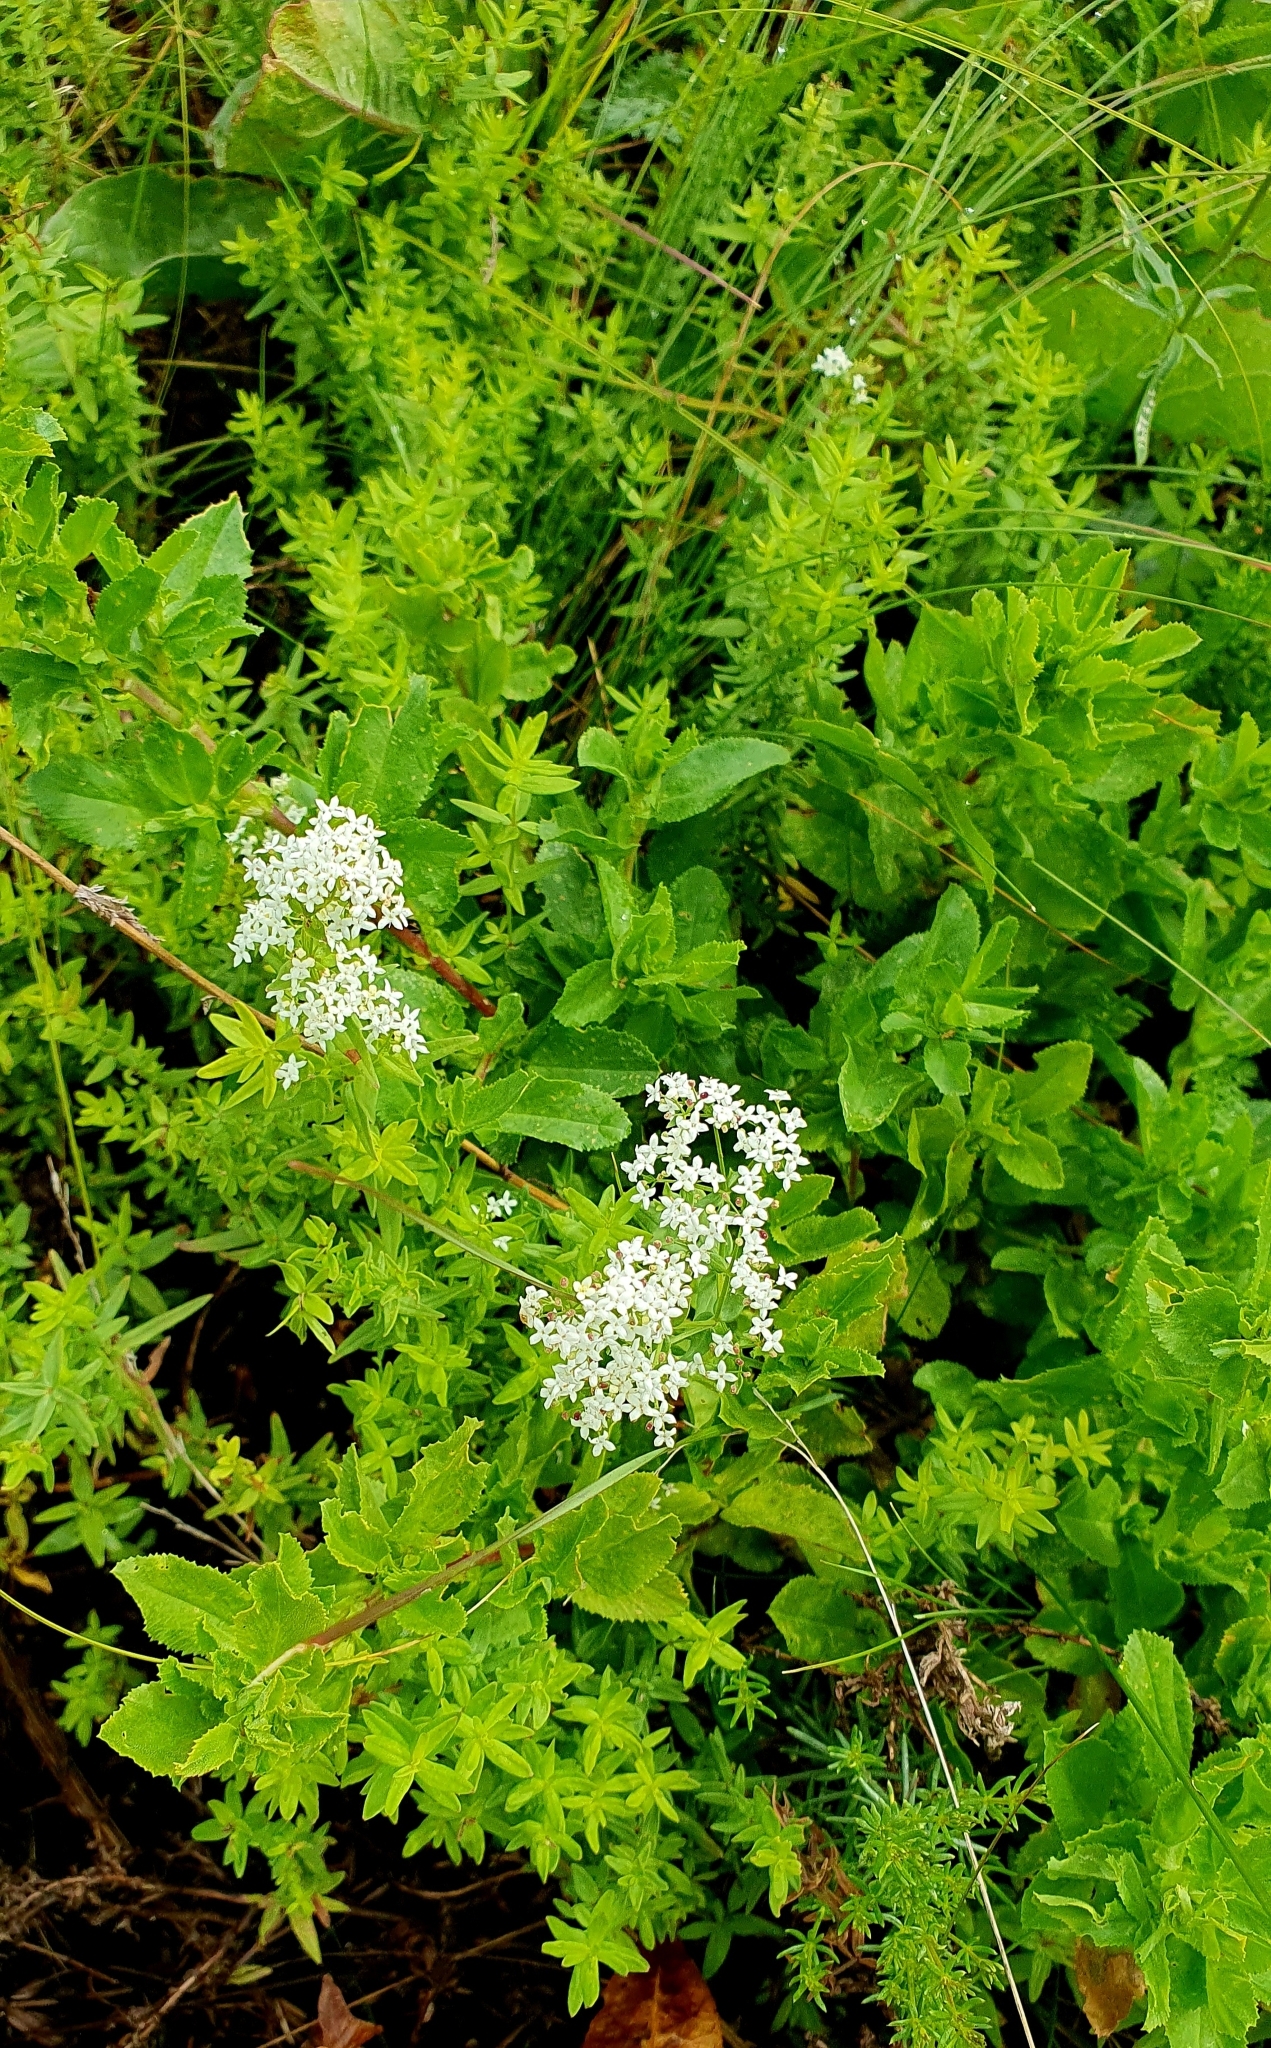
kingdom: Plantae
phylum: Tracheophyta
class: Magnoliopsida
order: Gentianales
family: Rubiaceae
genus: Galium
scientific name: Galium boreale
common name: Northern bedstraw
